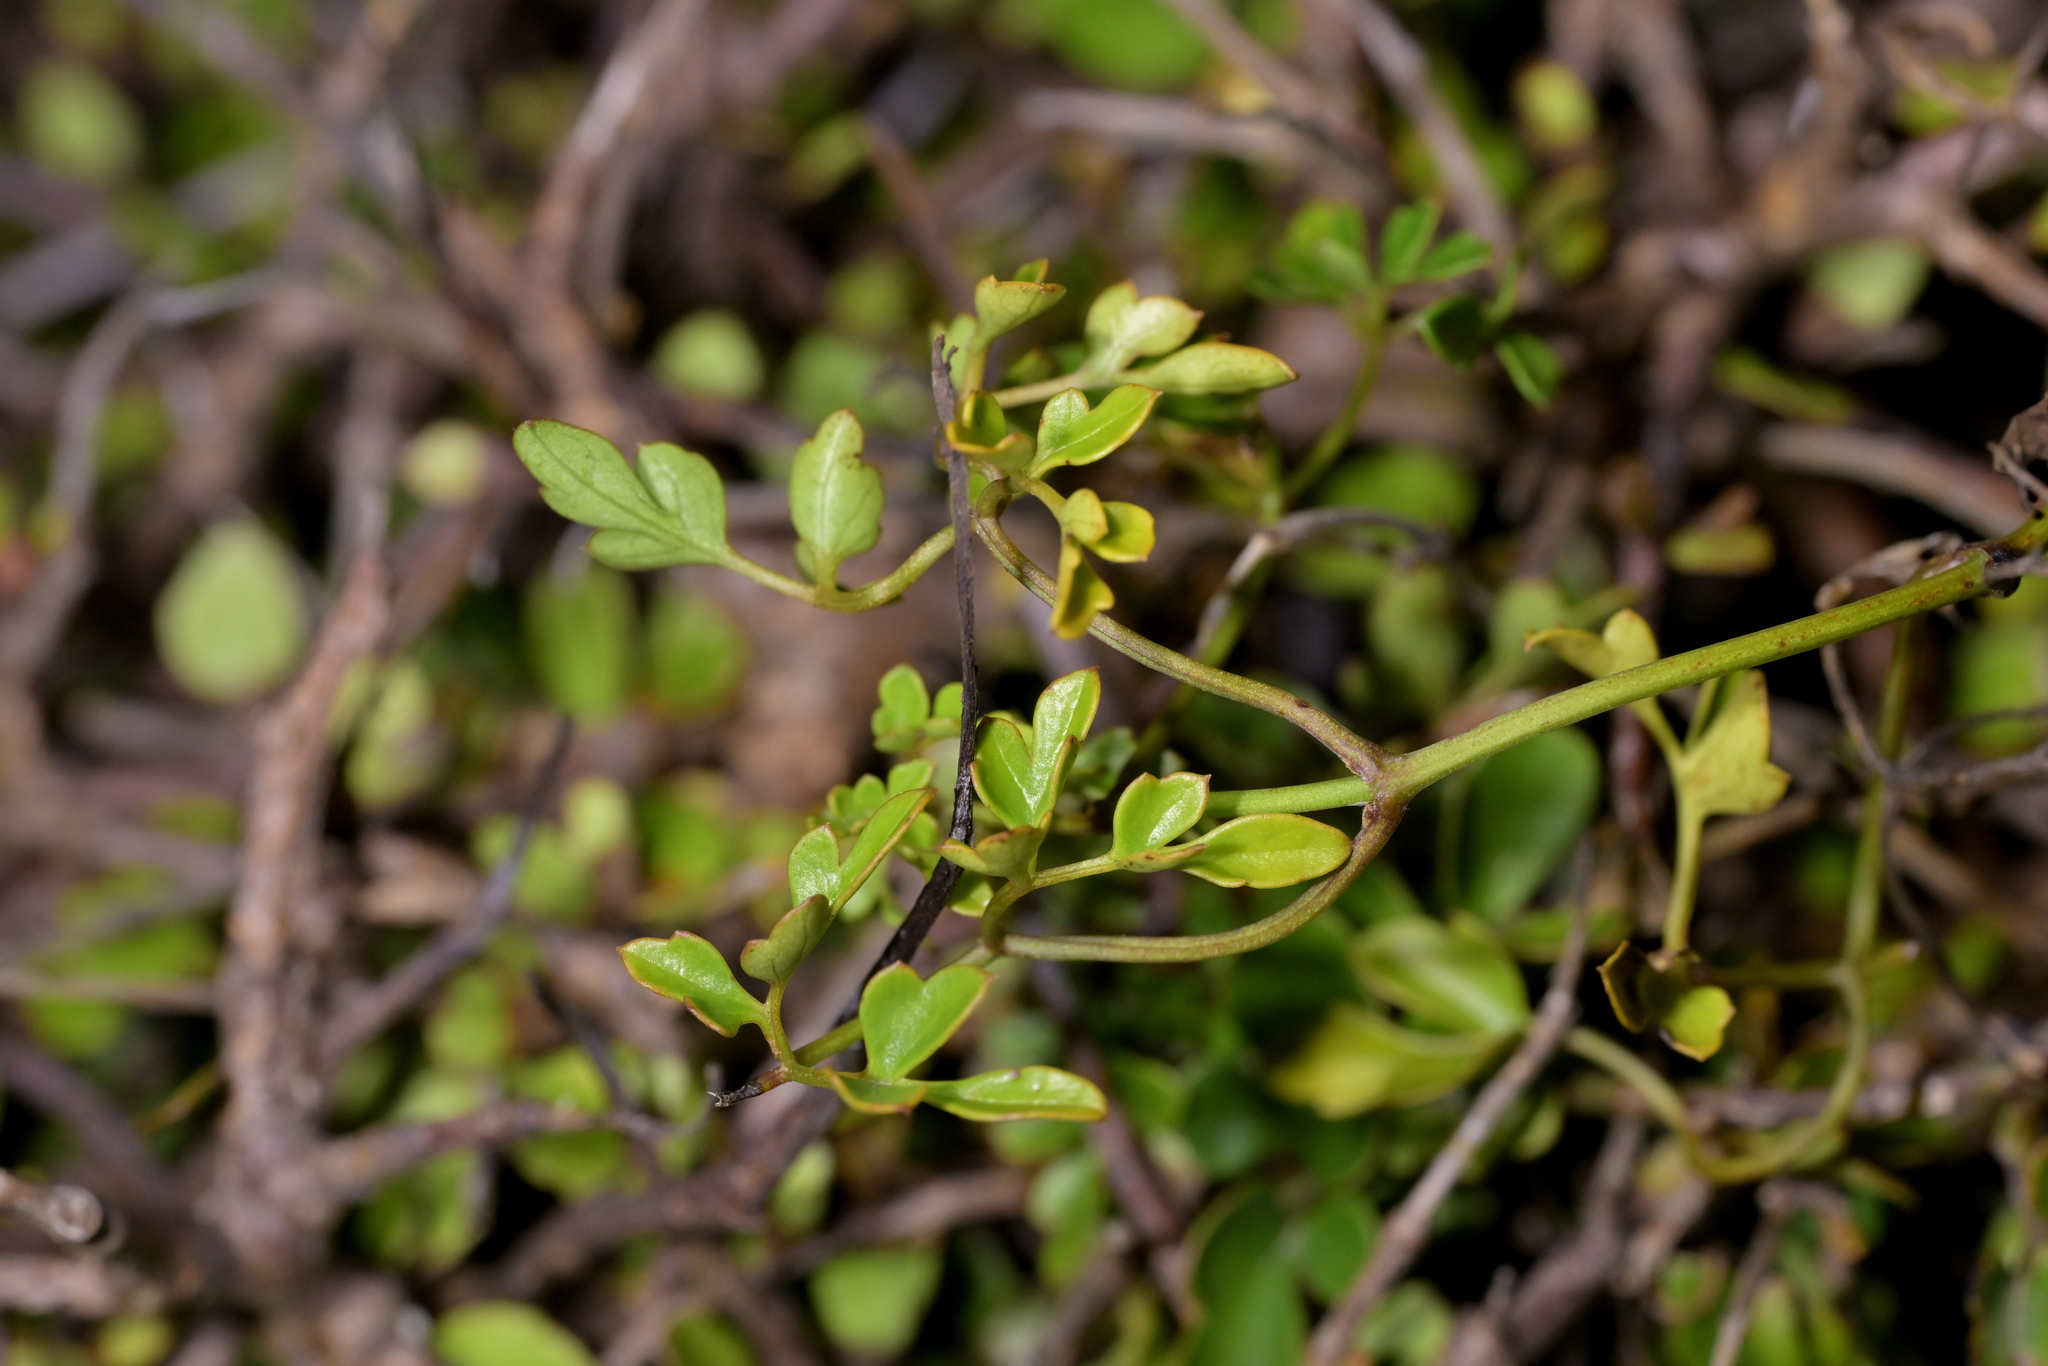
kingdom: Plantae
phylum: Tracheophyta
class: Magnoliopsida
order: Ranunculales
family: Ranunculaceae
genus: Clematis
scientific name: Clematis forsteri
